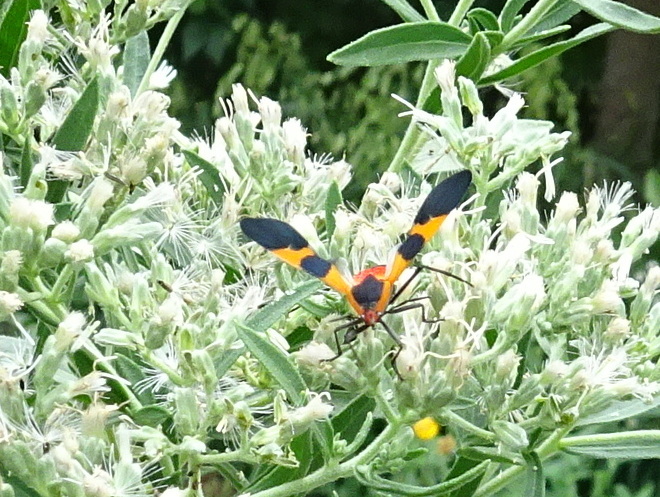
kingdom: Animalia
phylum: Arthropoda
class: Insecta
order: Hemiptera
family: Lygaeidae
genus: Oncopeltus
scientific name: Oncopeltus fasciatus
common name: Large milkweed bug
